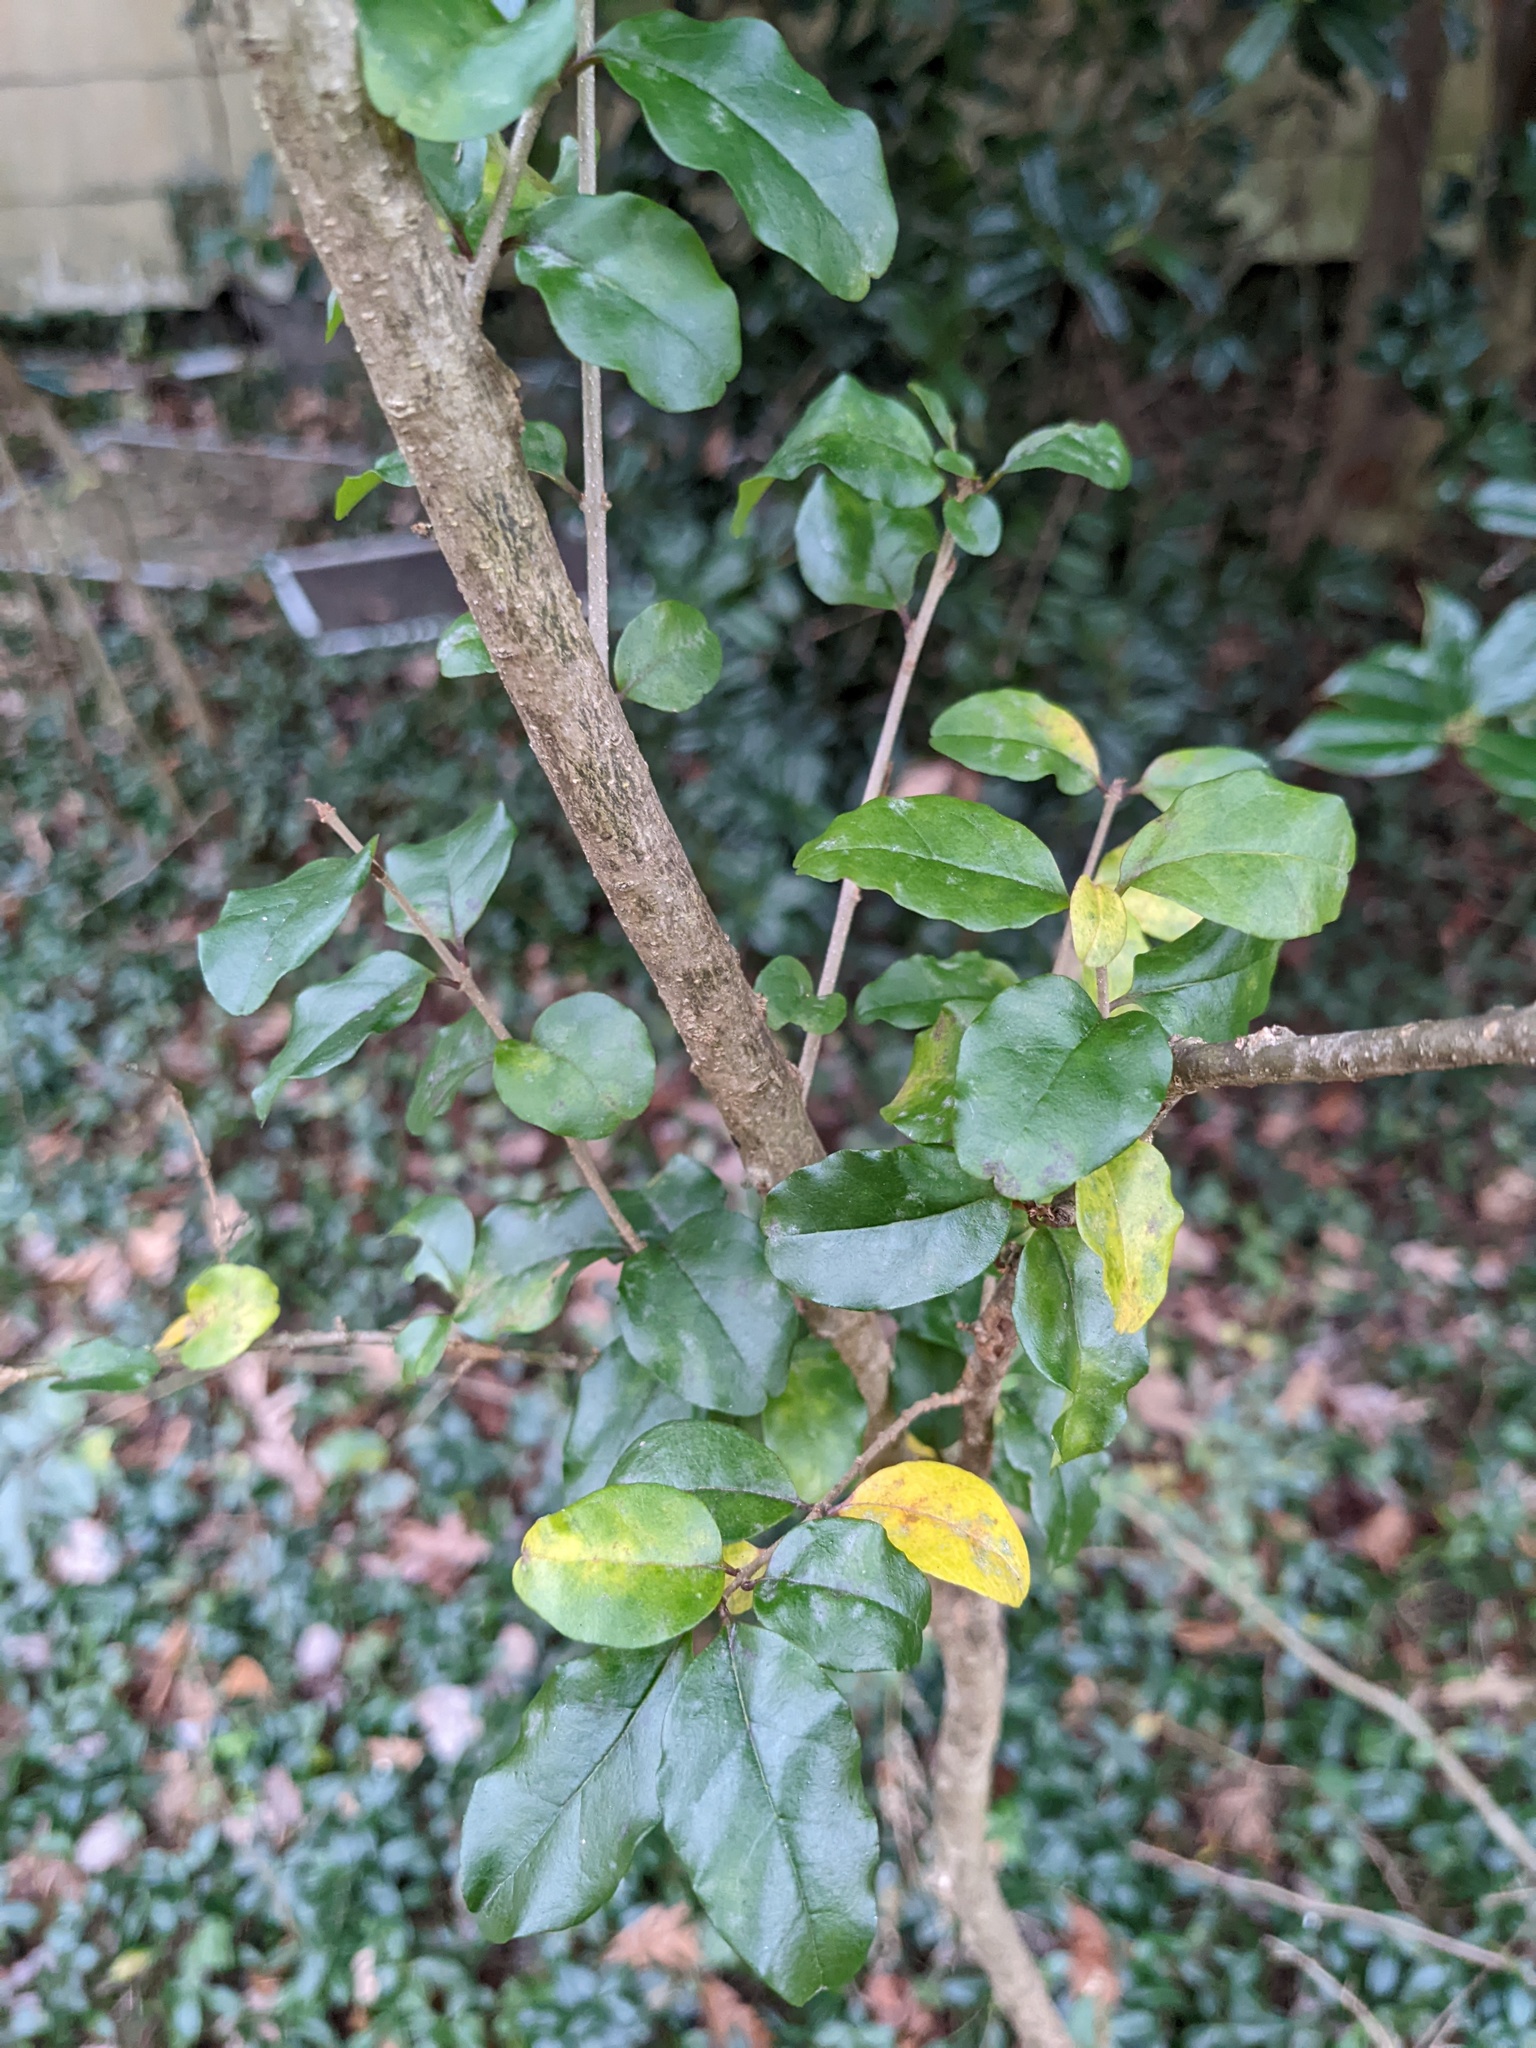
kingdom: Plantae
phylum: Tracheophyta
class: Magnoliopsida
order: Lamiales
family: Oleaceae
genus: Ligustrum
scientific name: Ligustrum sinense
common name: Chinese privet
